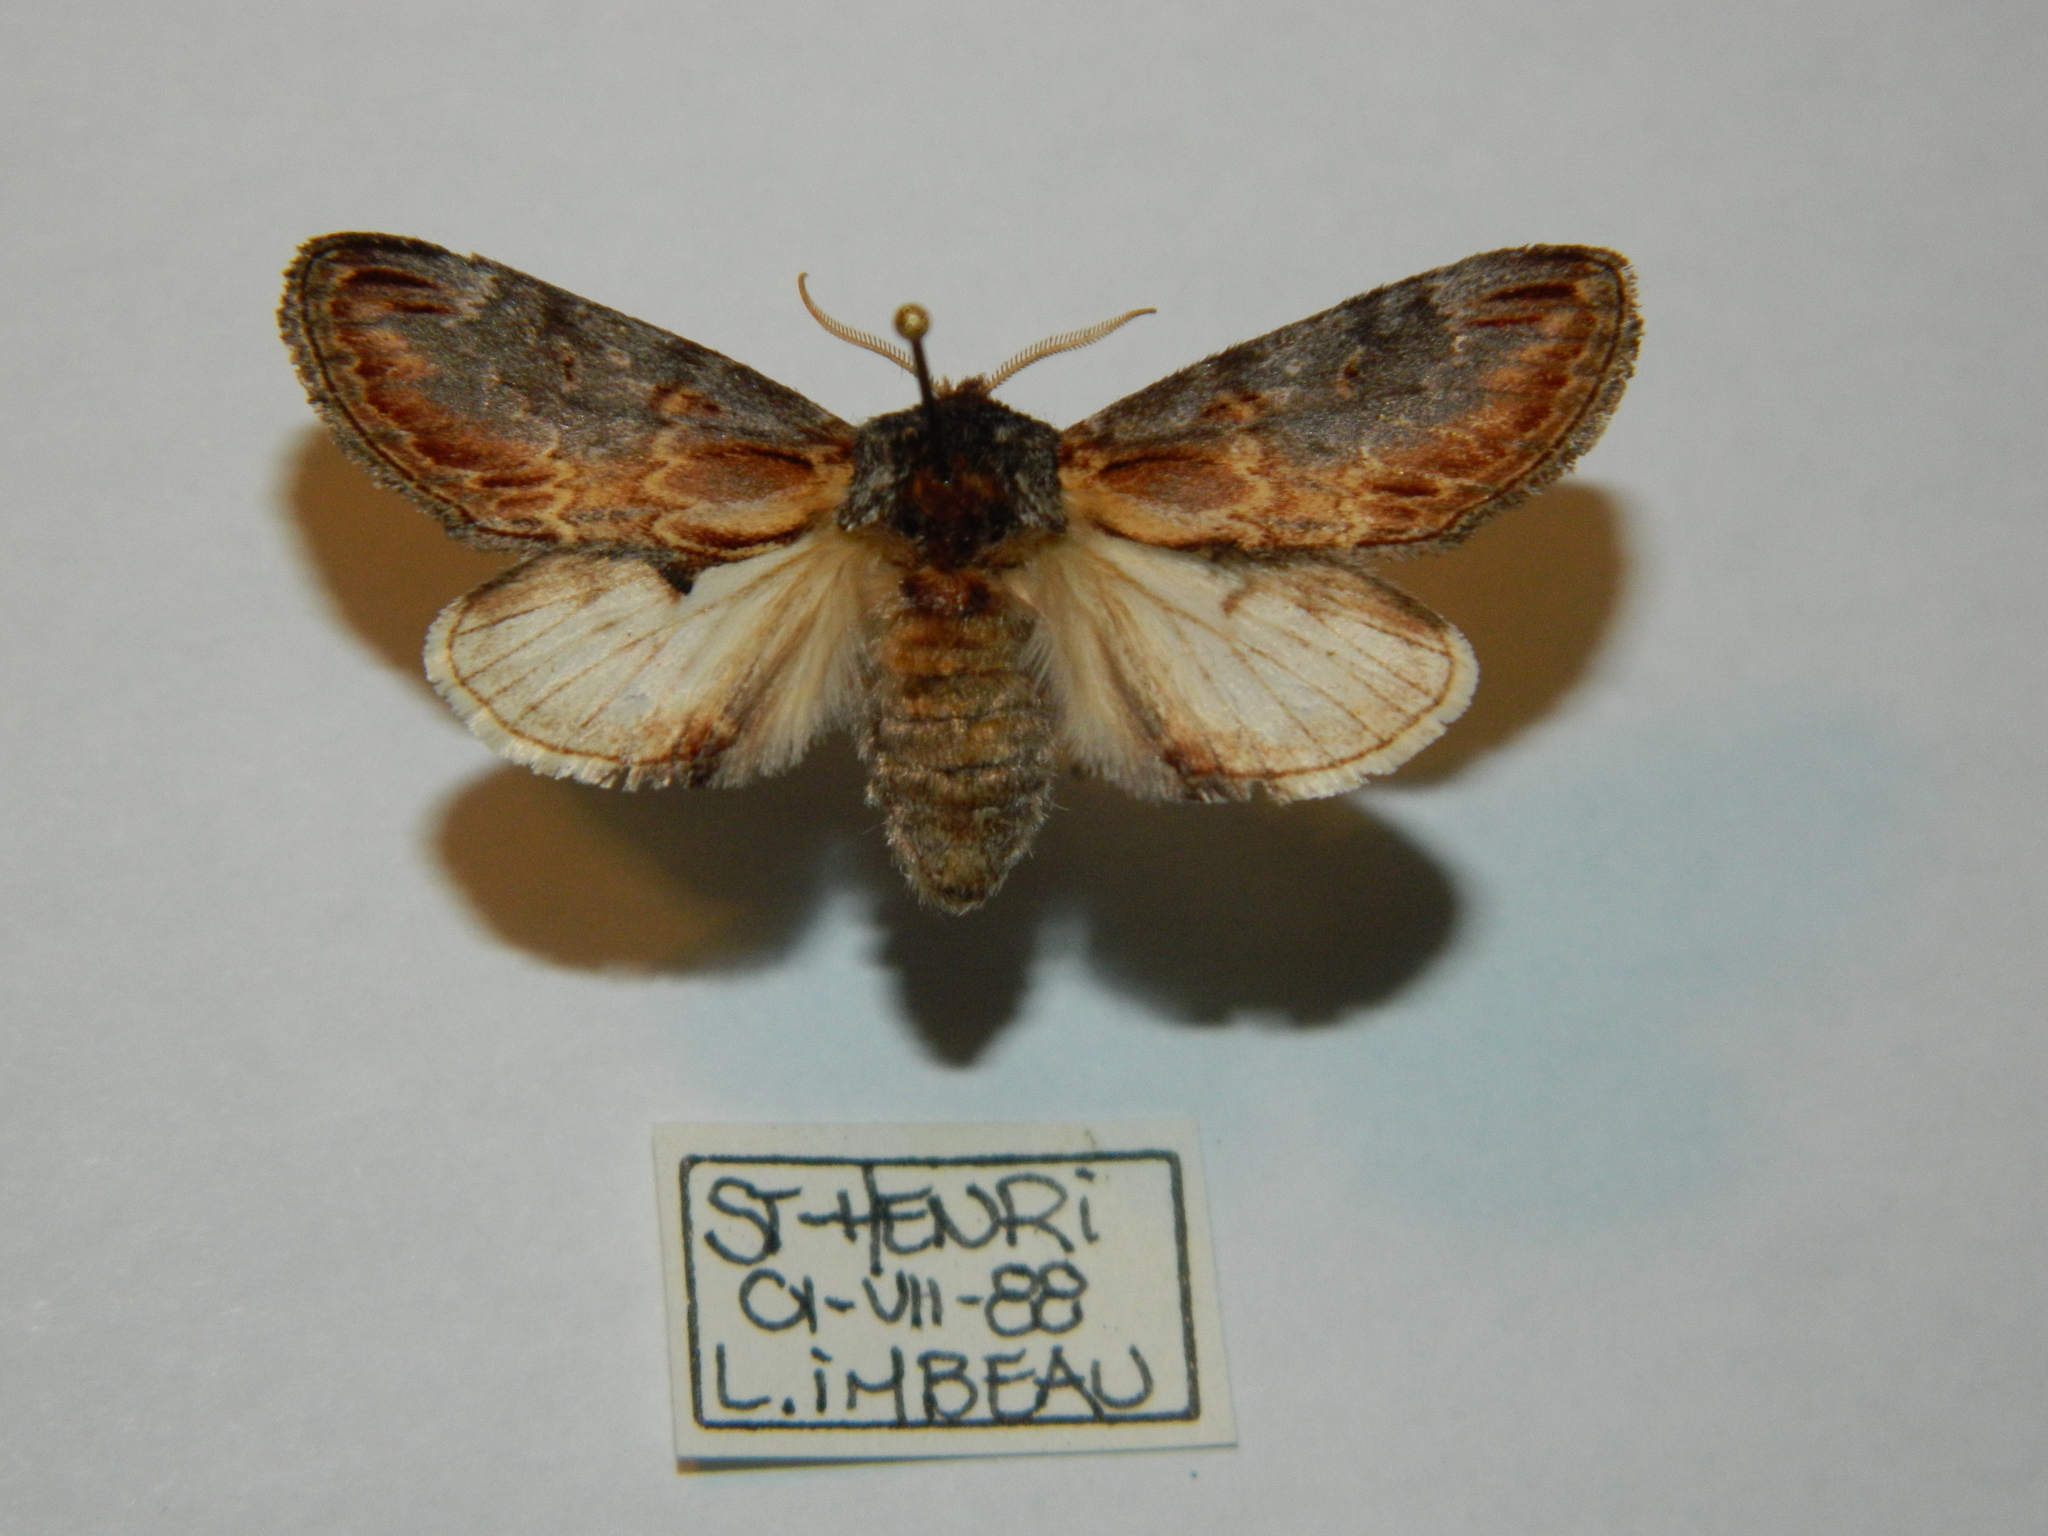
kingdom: Animalia
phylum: Arthropoda
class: Insecta
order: Lepidoptera
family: Notodontidae
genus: Notodonta
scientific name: Notodonta scitipennis
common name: Finned-willow prominent moth
